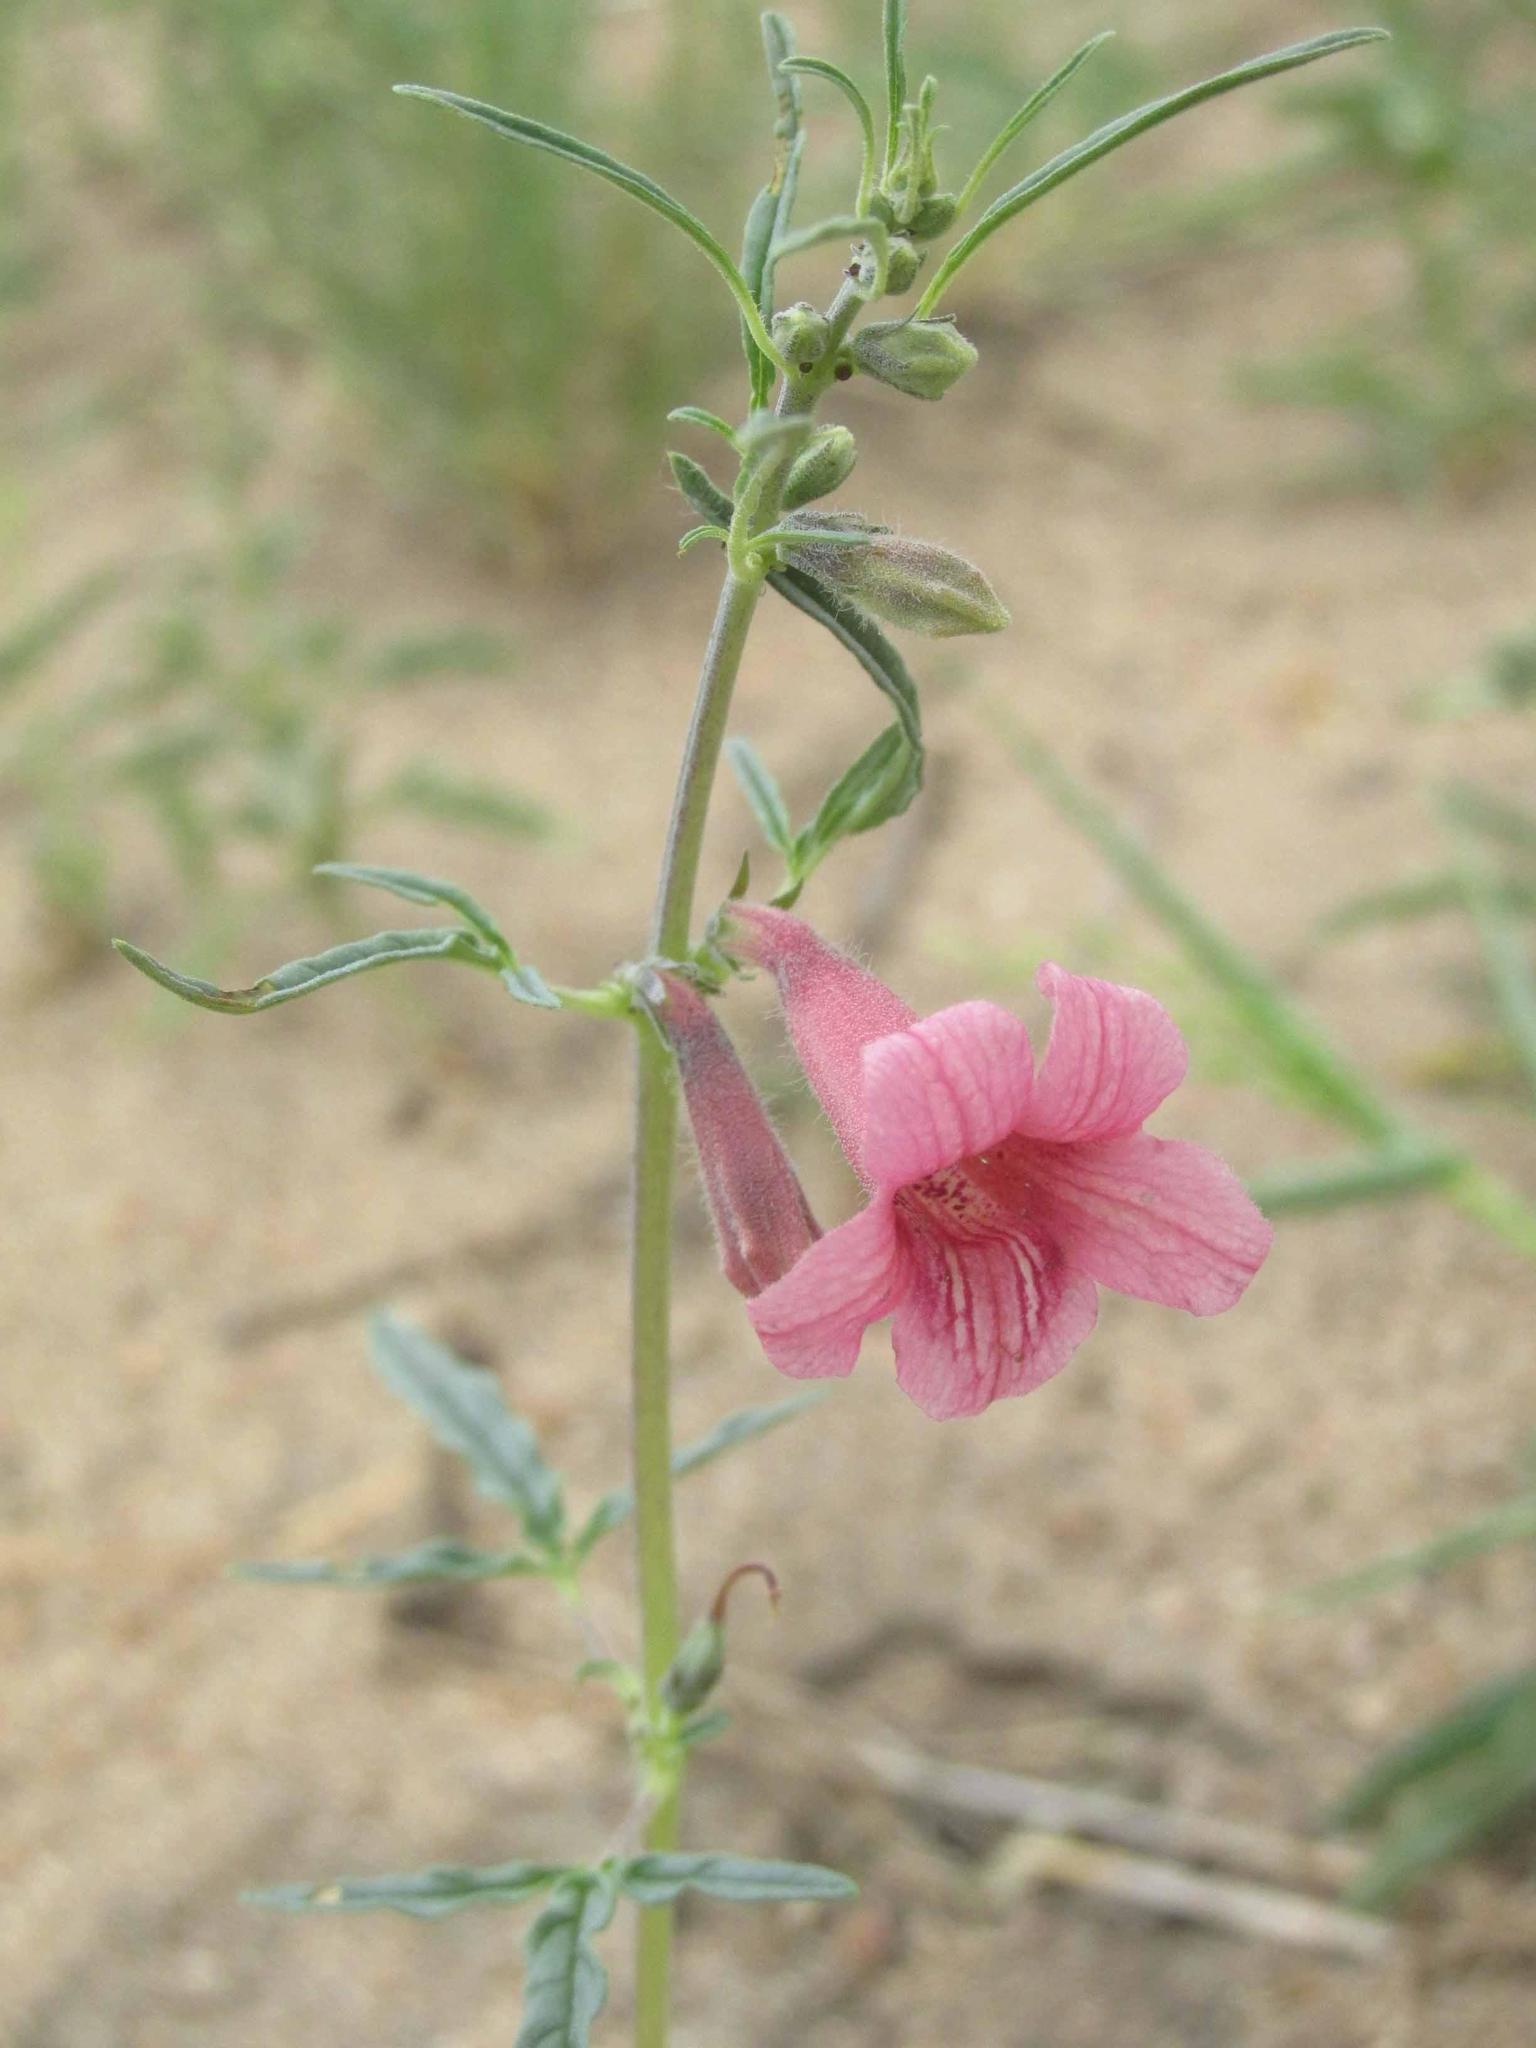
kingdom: Plantae
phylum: Tracheophyta
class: Magnoliopsida
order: Lamiales
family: Pedaliaceae
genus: Sesamum
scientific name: Sesamum triphyllum
